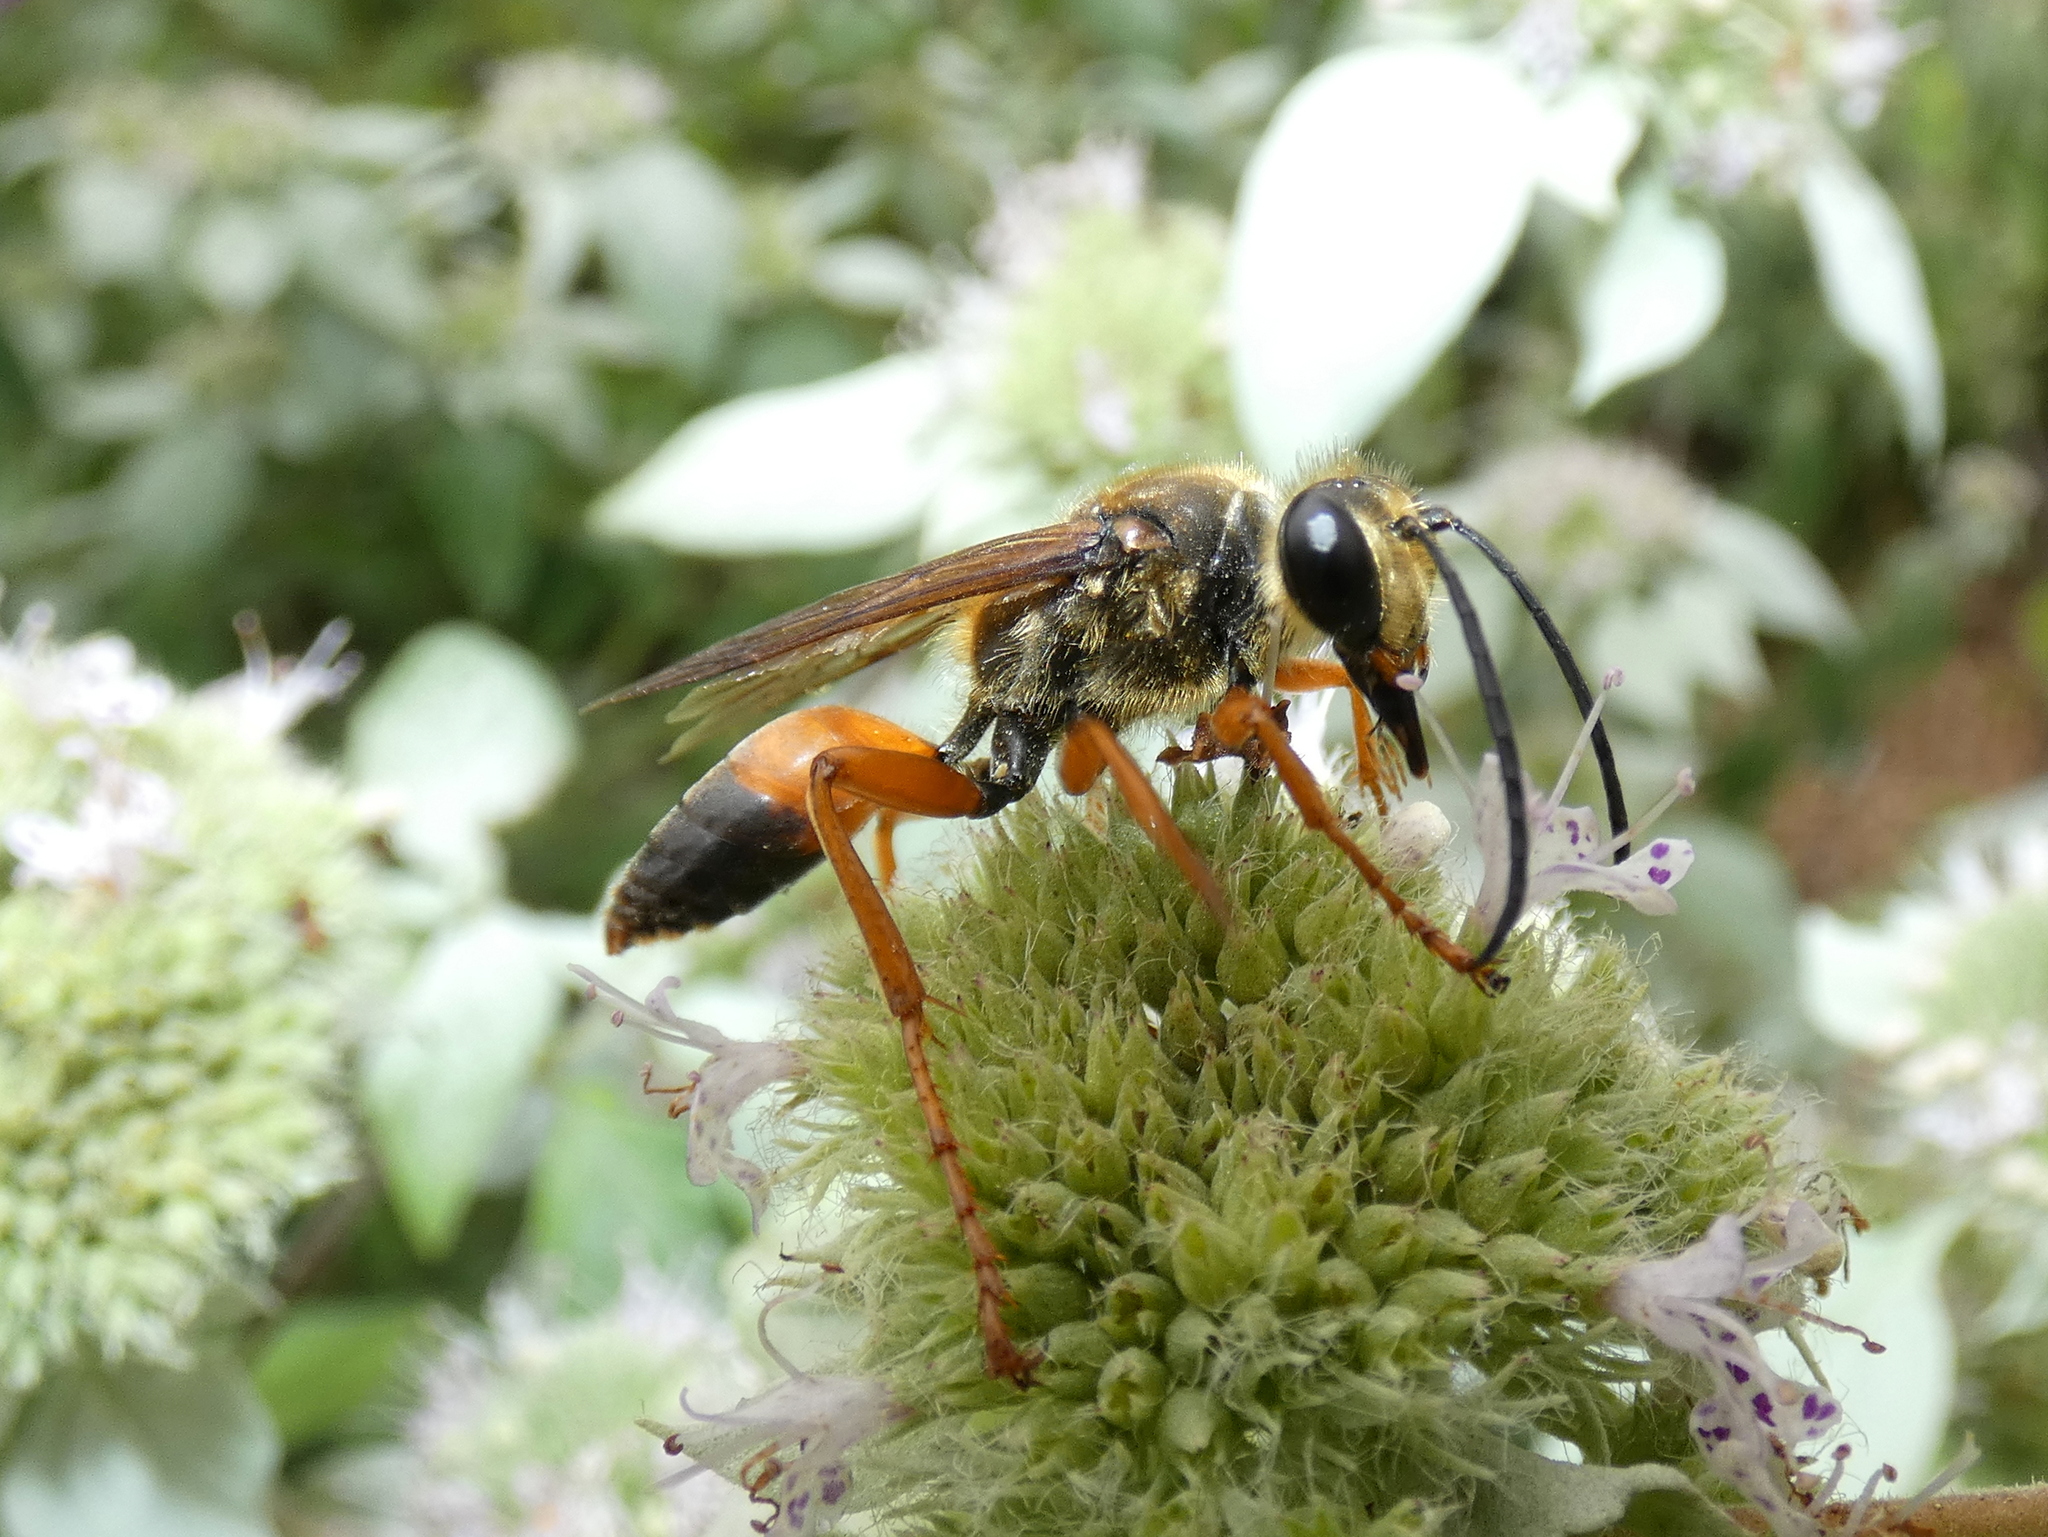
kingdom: Animalia
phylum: Arthropoda
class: Insecta
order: Hymenoptera
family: Sphecidae
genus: Sphex
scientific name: Sphex ichneumoneus
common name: Great golden digger wasp
